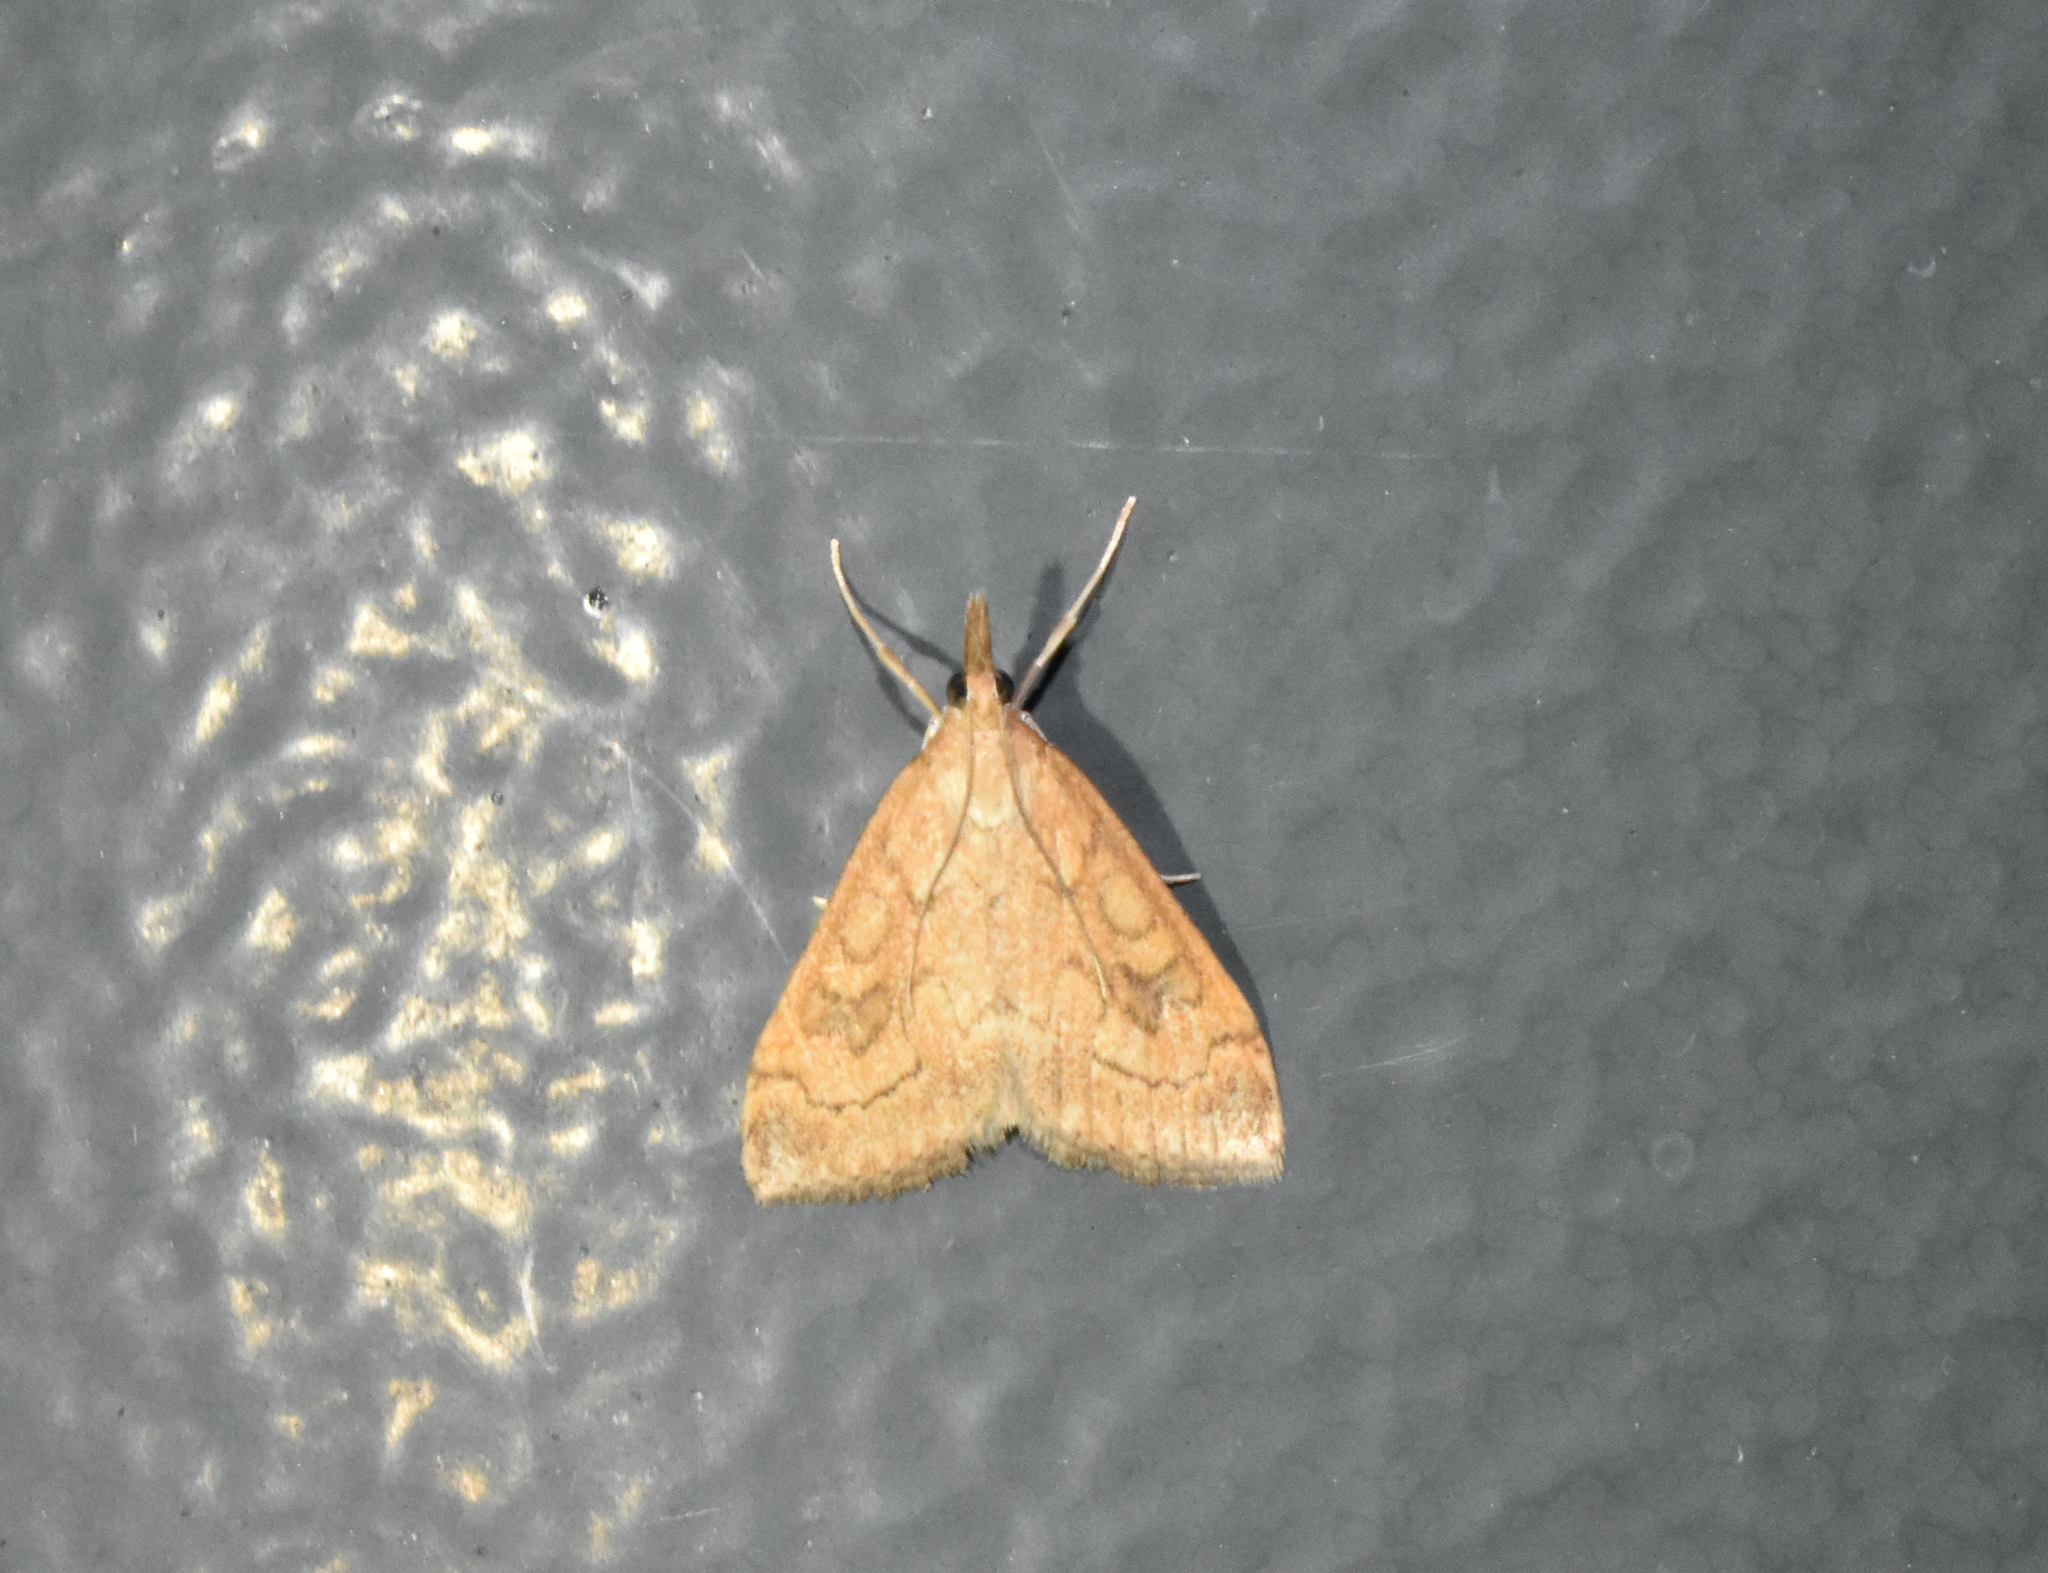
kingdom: Animalia
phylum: Arthropoda
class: Insecta
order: Lepidoptera
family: Crambidae
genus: Udea
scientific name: Udea profundalis
